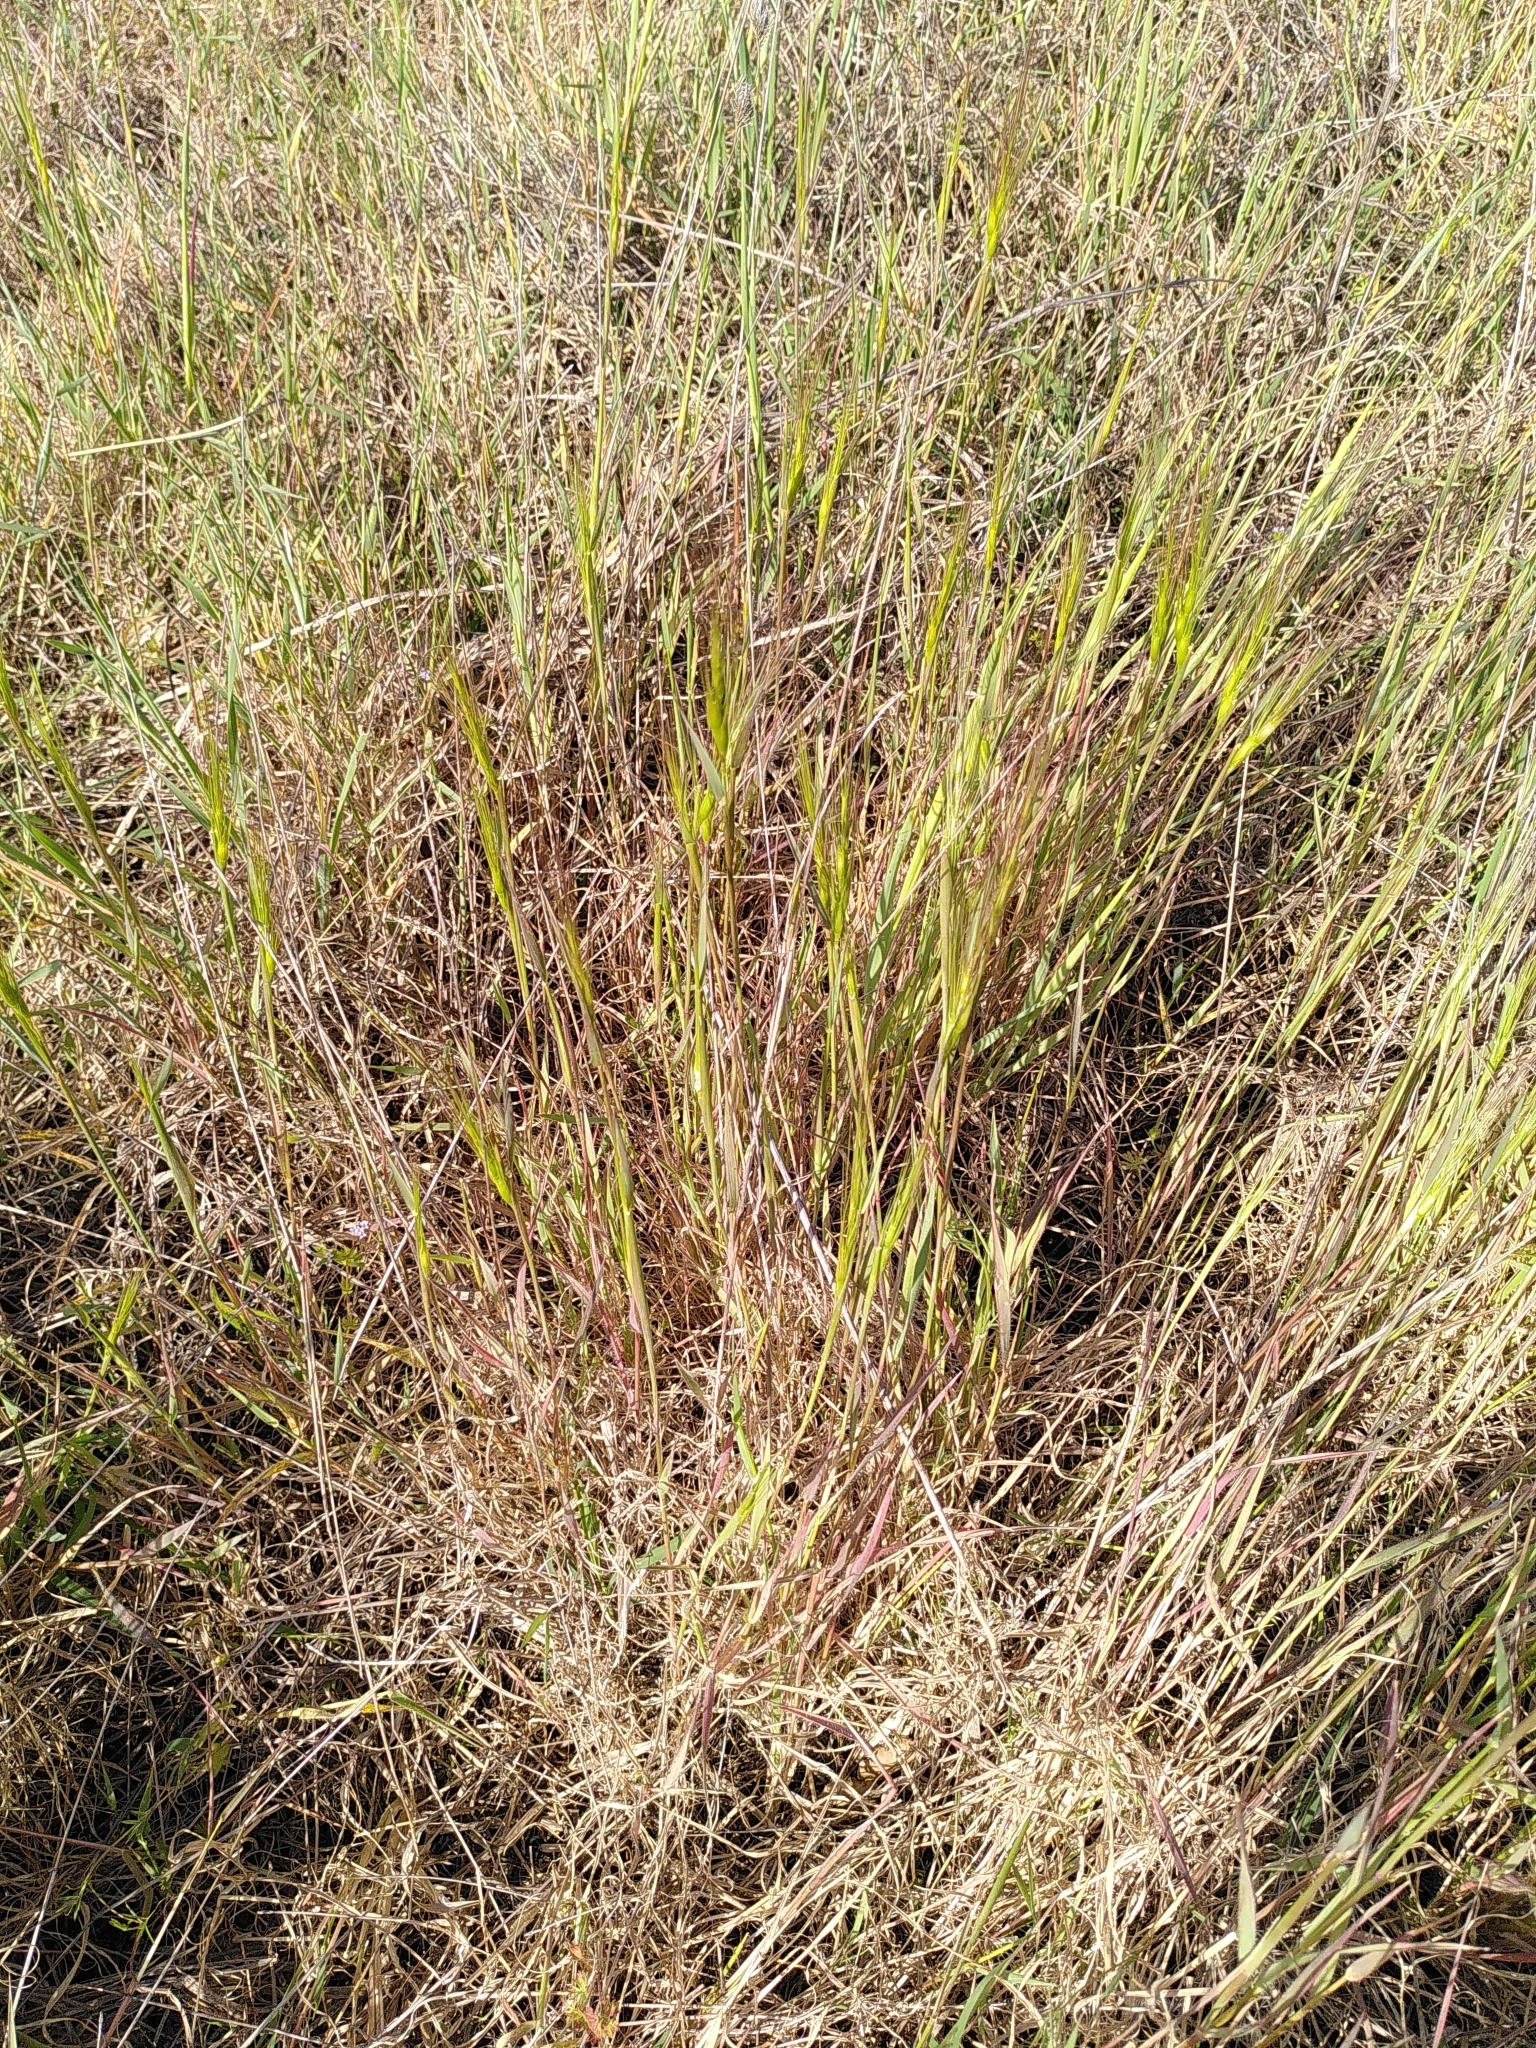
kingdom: Plantae
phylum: Tracheophyta
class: Liliopsida
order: Poales
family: Poaceae
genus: Aegilops
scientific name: Aegilops triuncialis
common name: Barb goat grass
